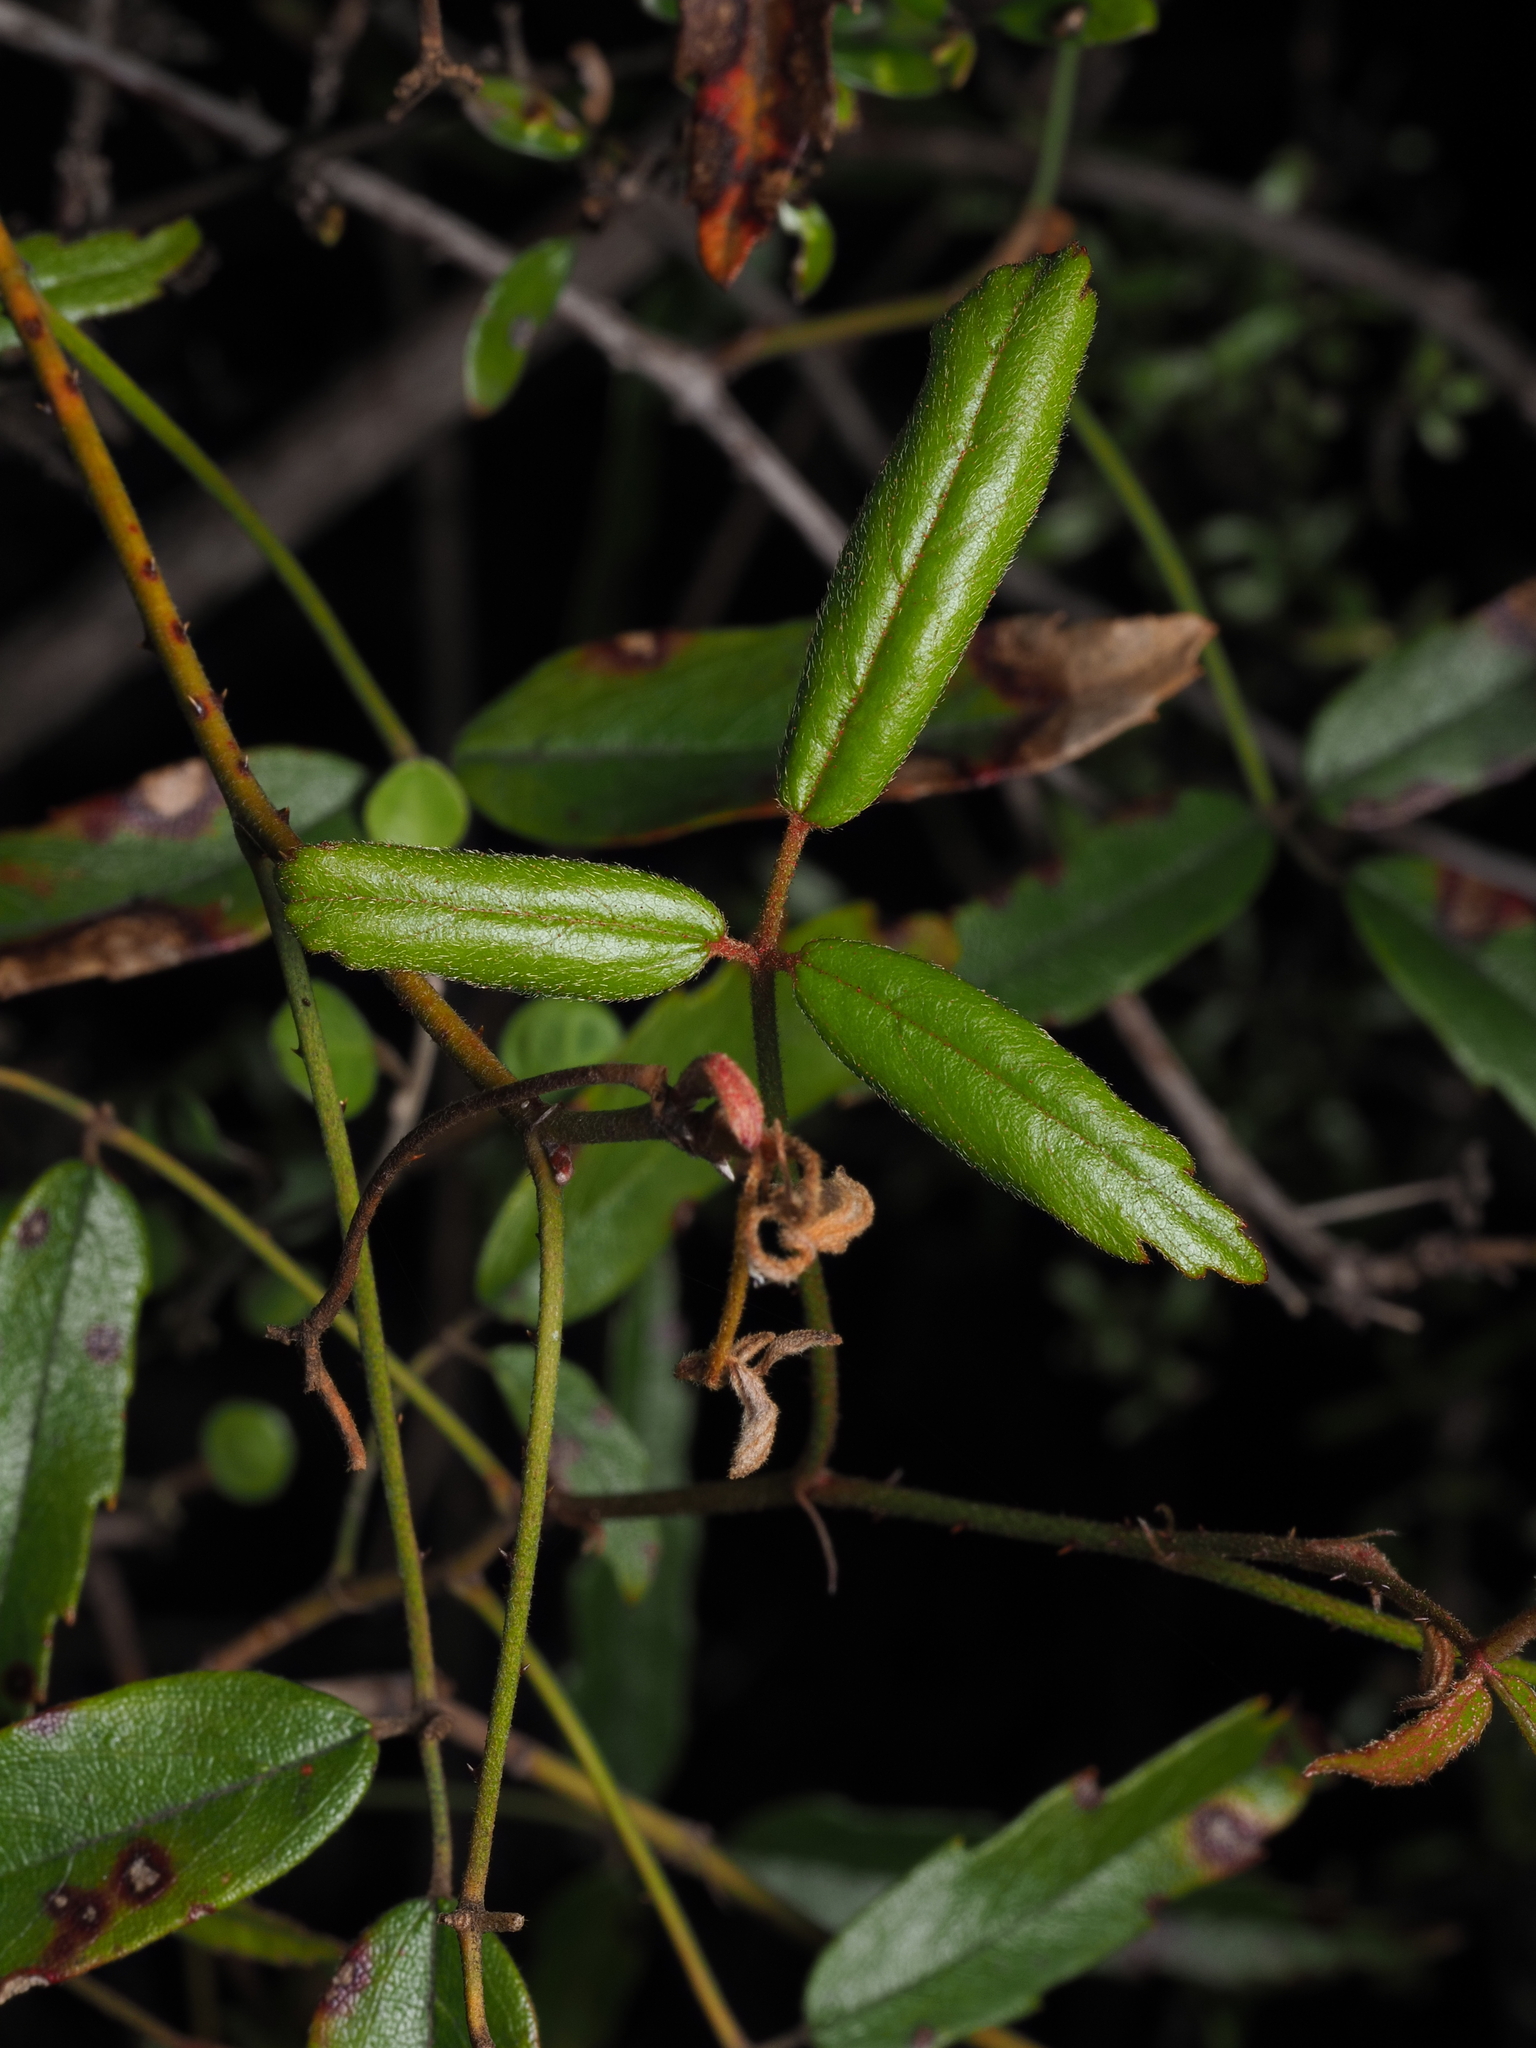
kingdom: Plantae
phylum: Tracheophyta
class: Magnoliopsida
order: Rosales
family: Rosaceae
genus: Rubus
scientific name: Rubus schmidelioides
